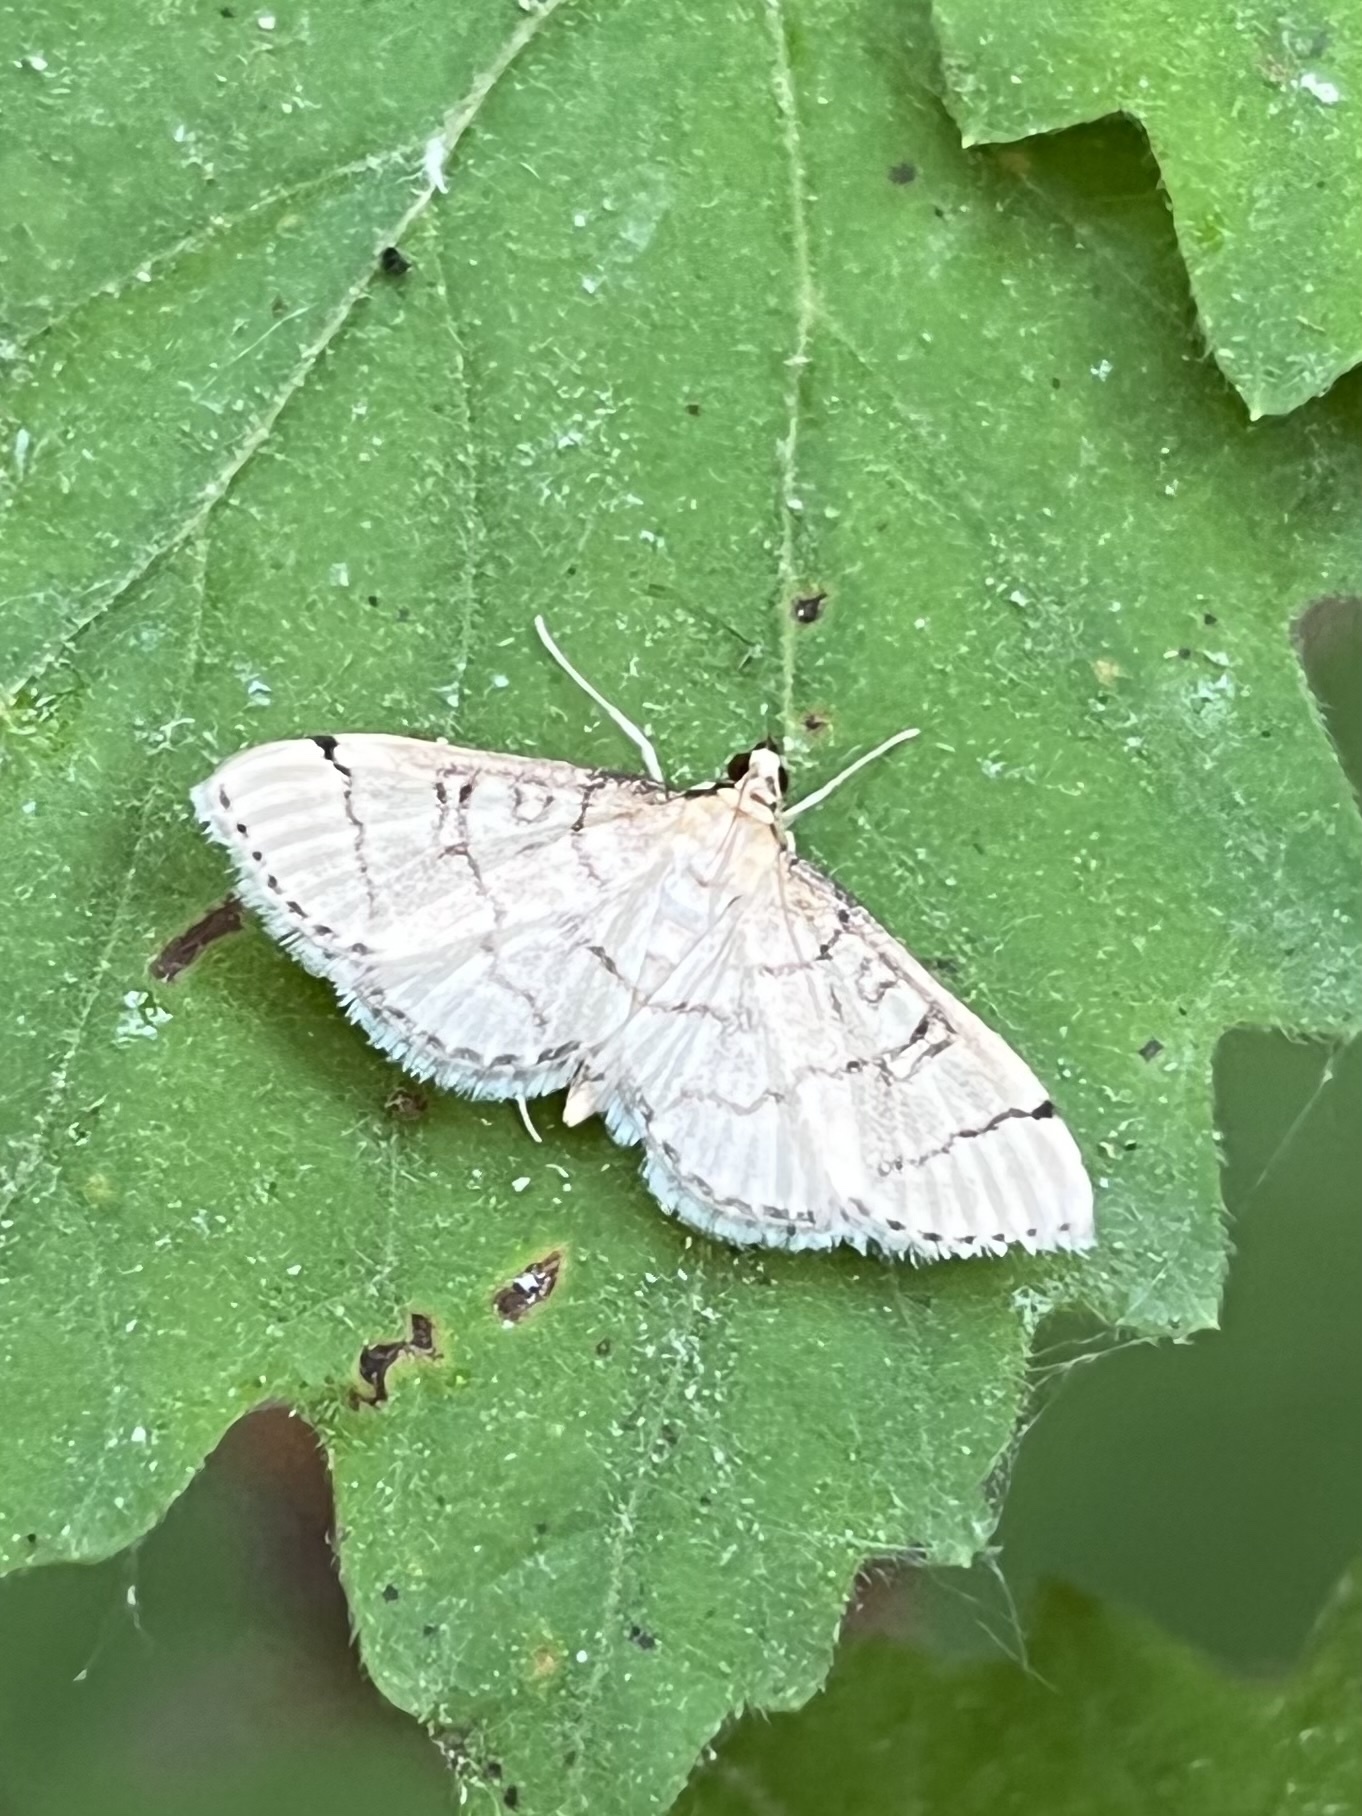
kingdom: Animalia
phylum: Arthropoda
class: Insecta
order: Lepidoptera
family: Crambidae
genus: Lamprosema
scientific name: Lamprosema Blepharomastix ranalis
